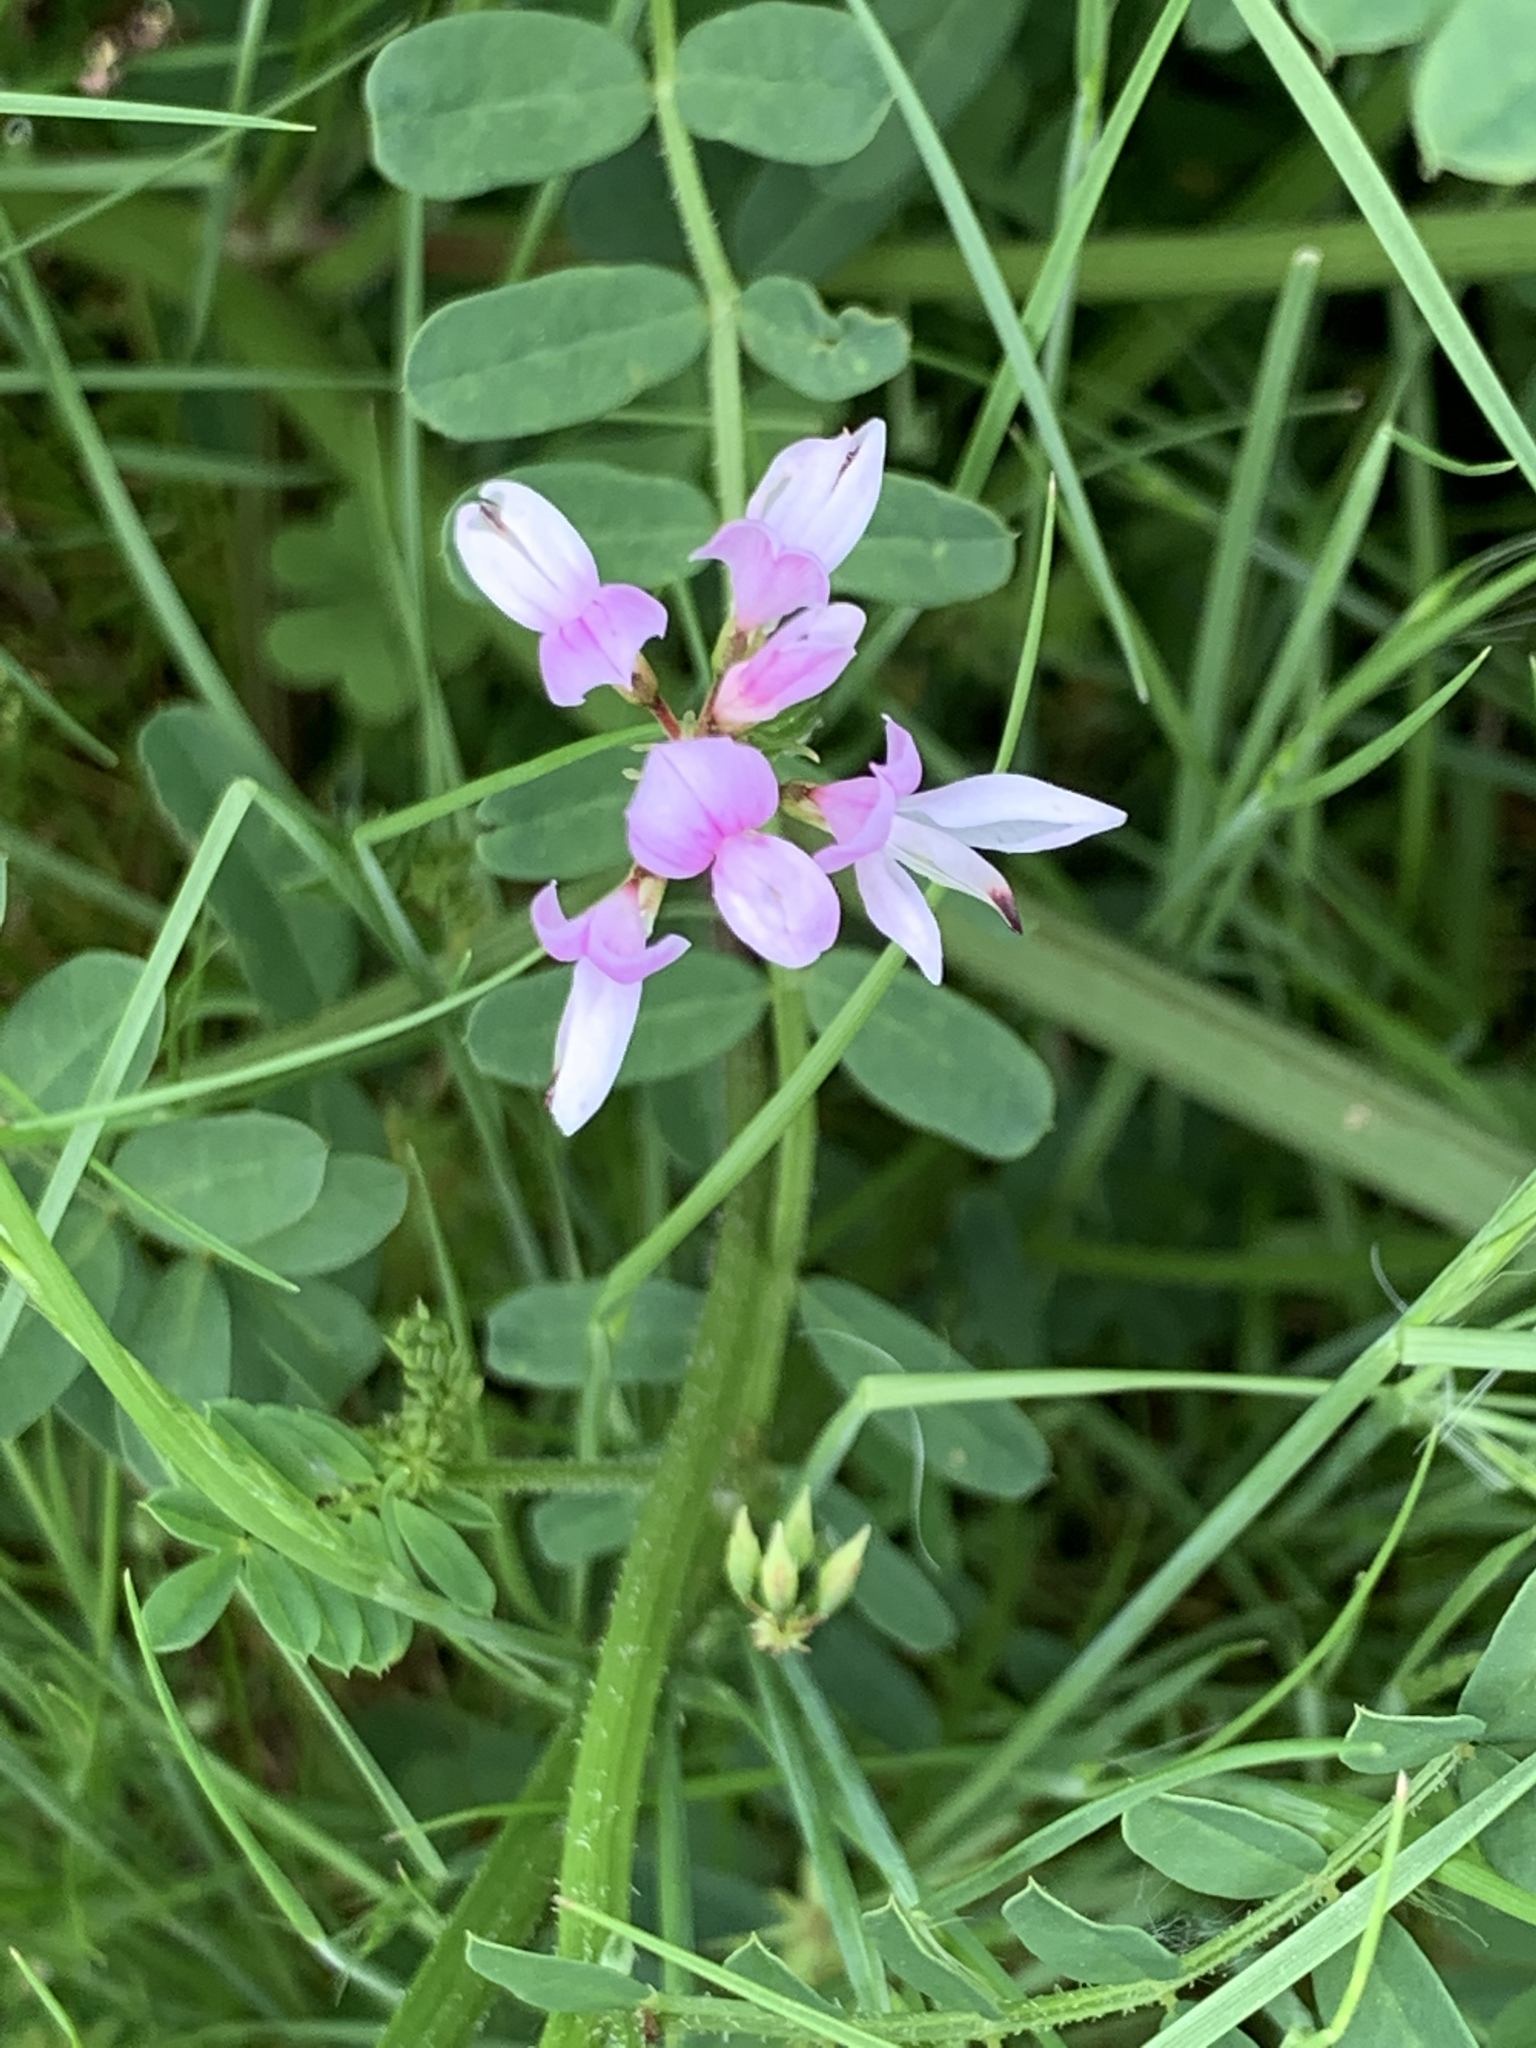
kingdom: Plantae
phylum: Tracheophyta
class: Magnoliopsida
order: Fabales
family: Fabaceae
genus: Coronilla
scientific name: Coronilla varia
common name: Crownvetch
